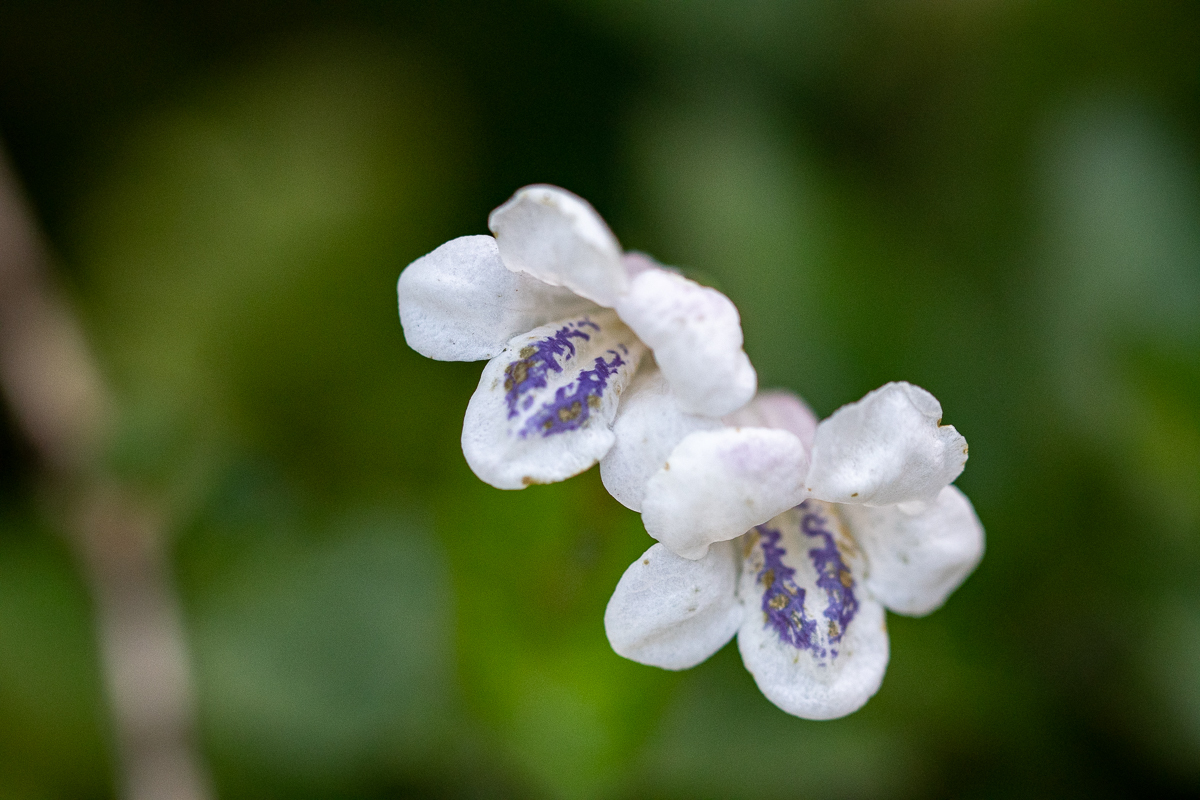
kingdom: Plantae
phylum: Tracheophyta
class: Magnoliopsida
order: Lamiales
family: Acanthaceae
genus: Asystasia
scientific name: Asystasia intrusa
